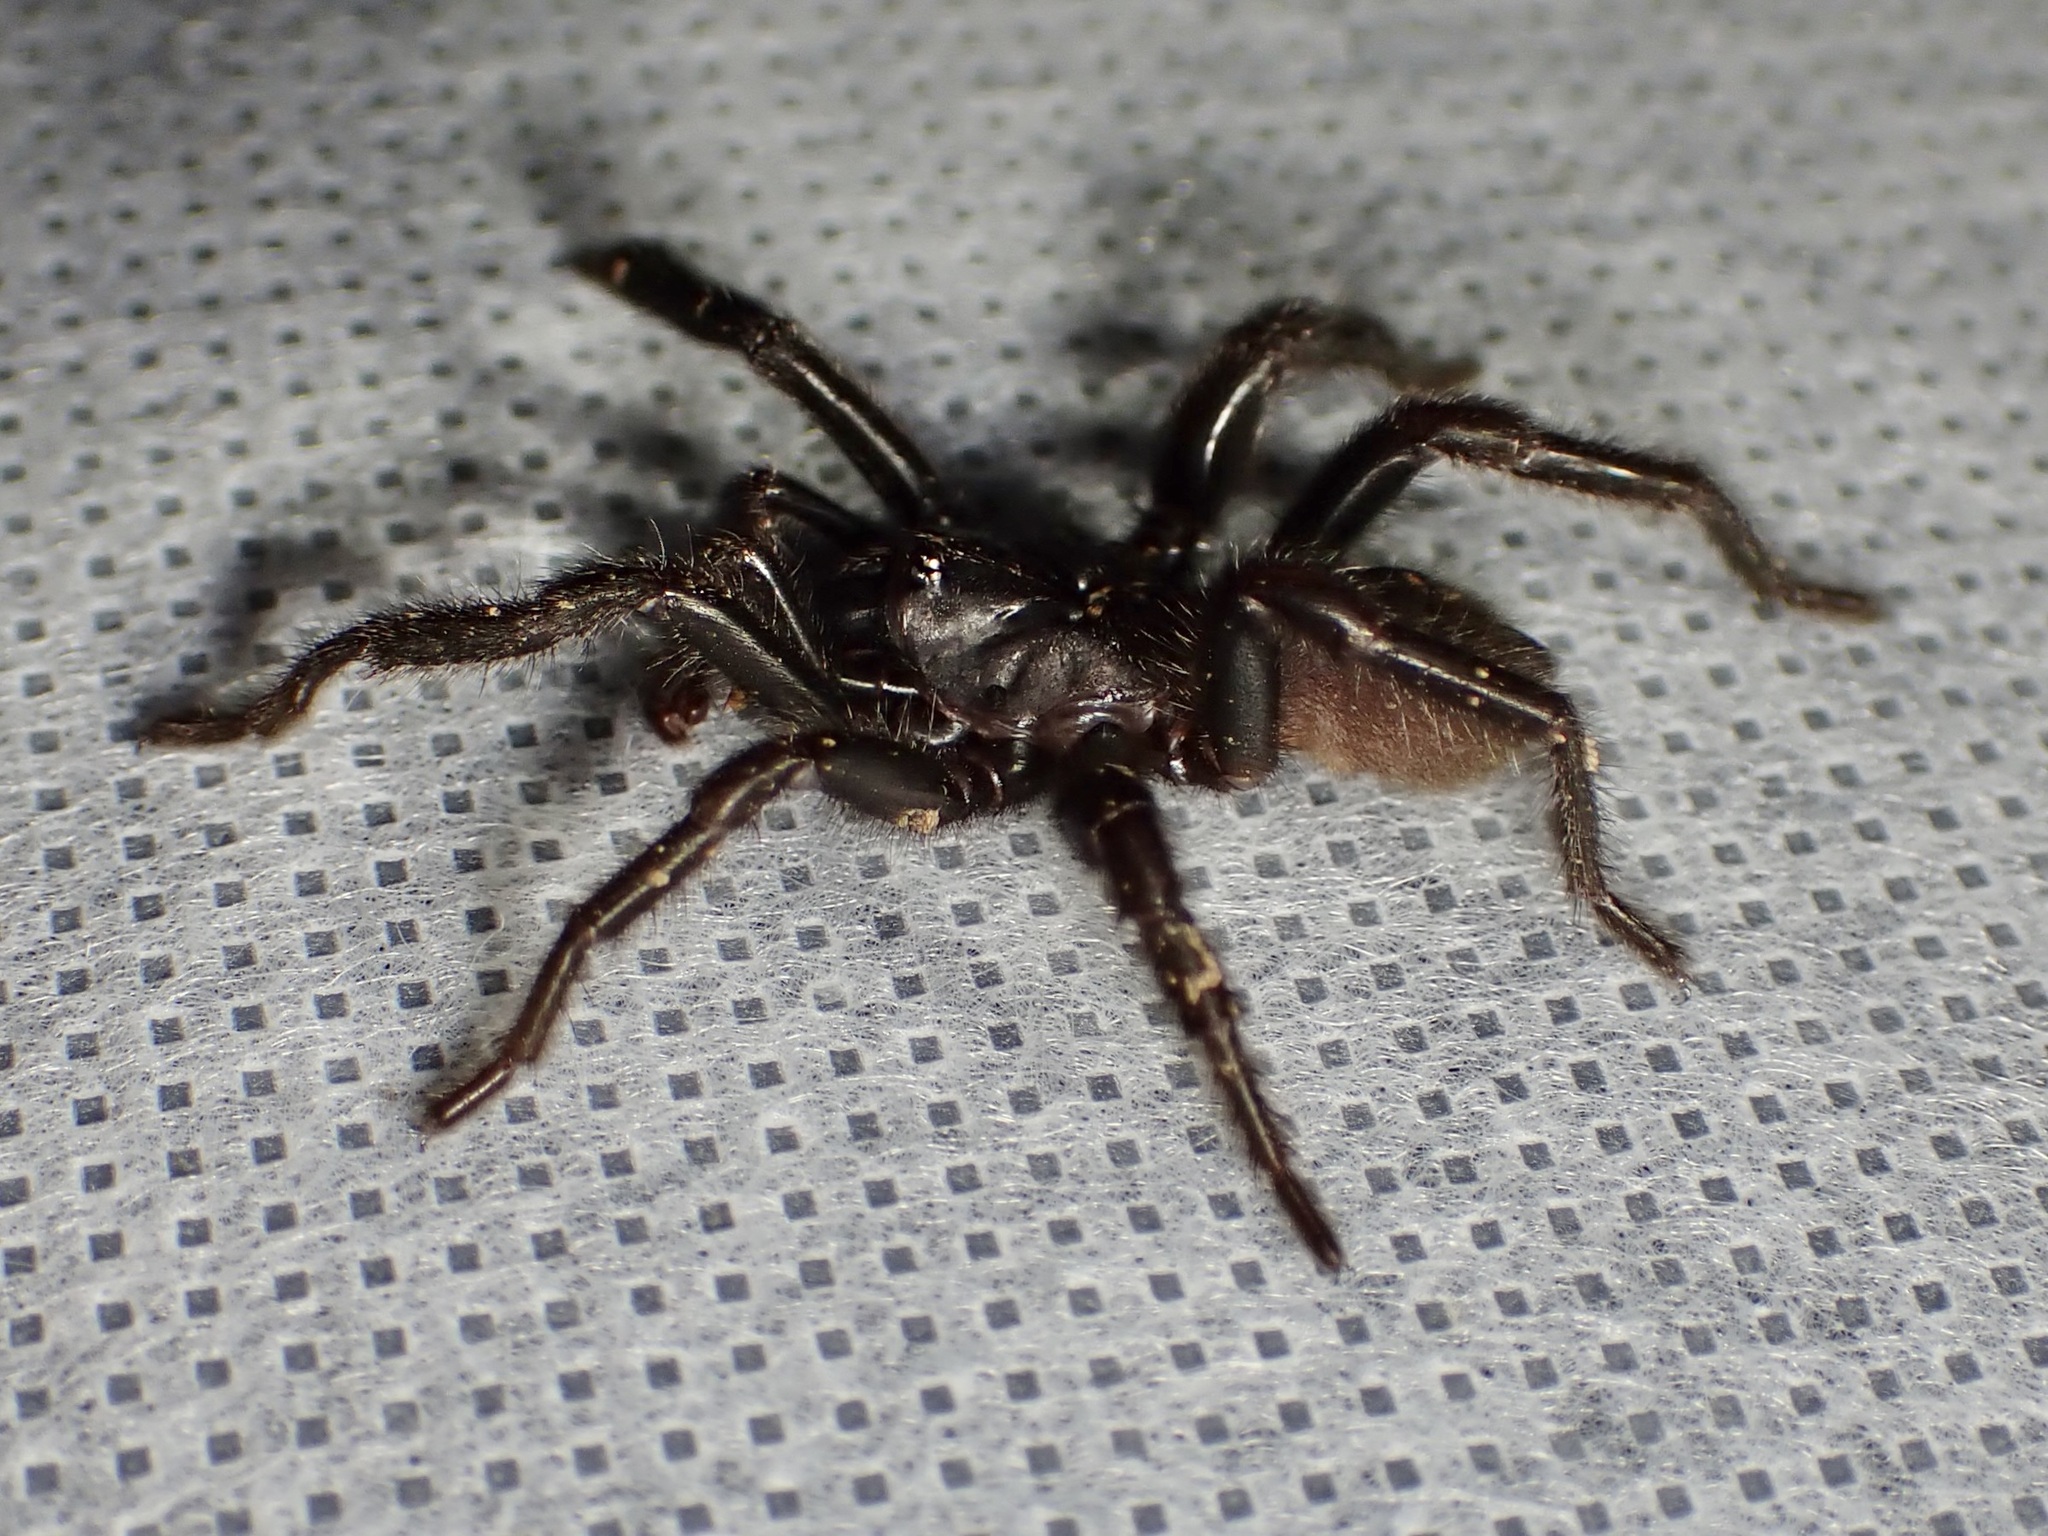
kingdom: Animalia
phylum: Arthropoda
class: Arachnida
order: Araneae
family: Euctenizidae
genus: Entychides
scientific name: Entychides arizonicus
